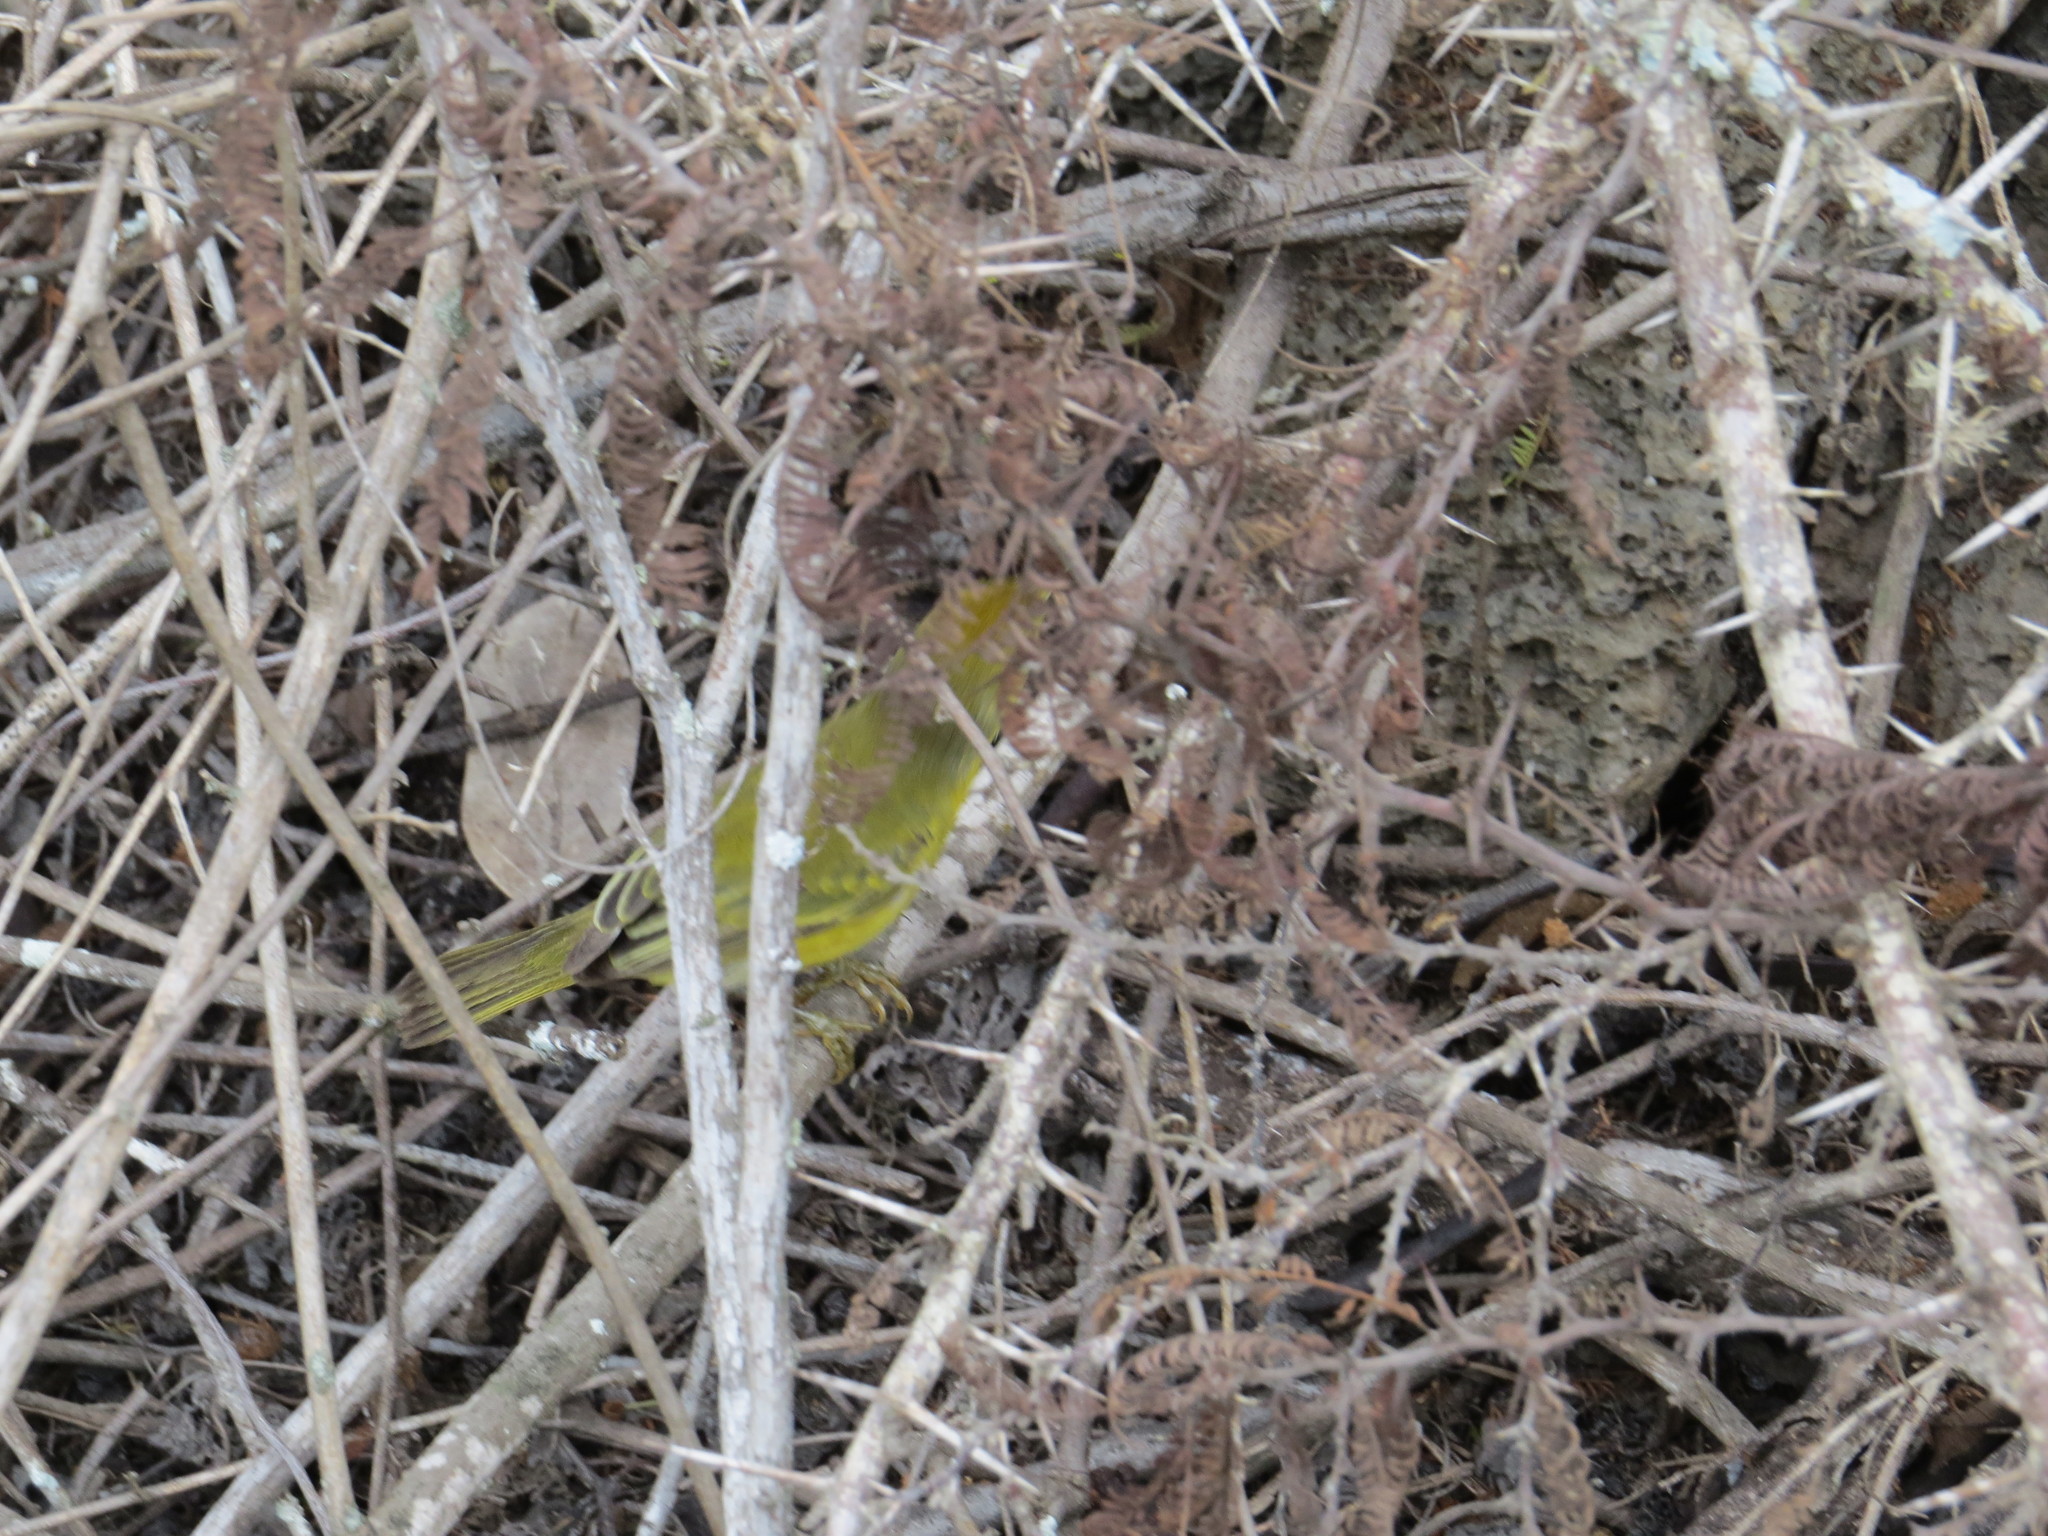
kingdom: Animalia
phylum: Chordata
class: Aves
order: Passeriformes
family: Parulidae
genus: Setophaga
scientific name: Setophaga petechia
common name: Yellow warbler
